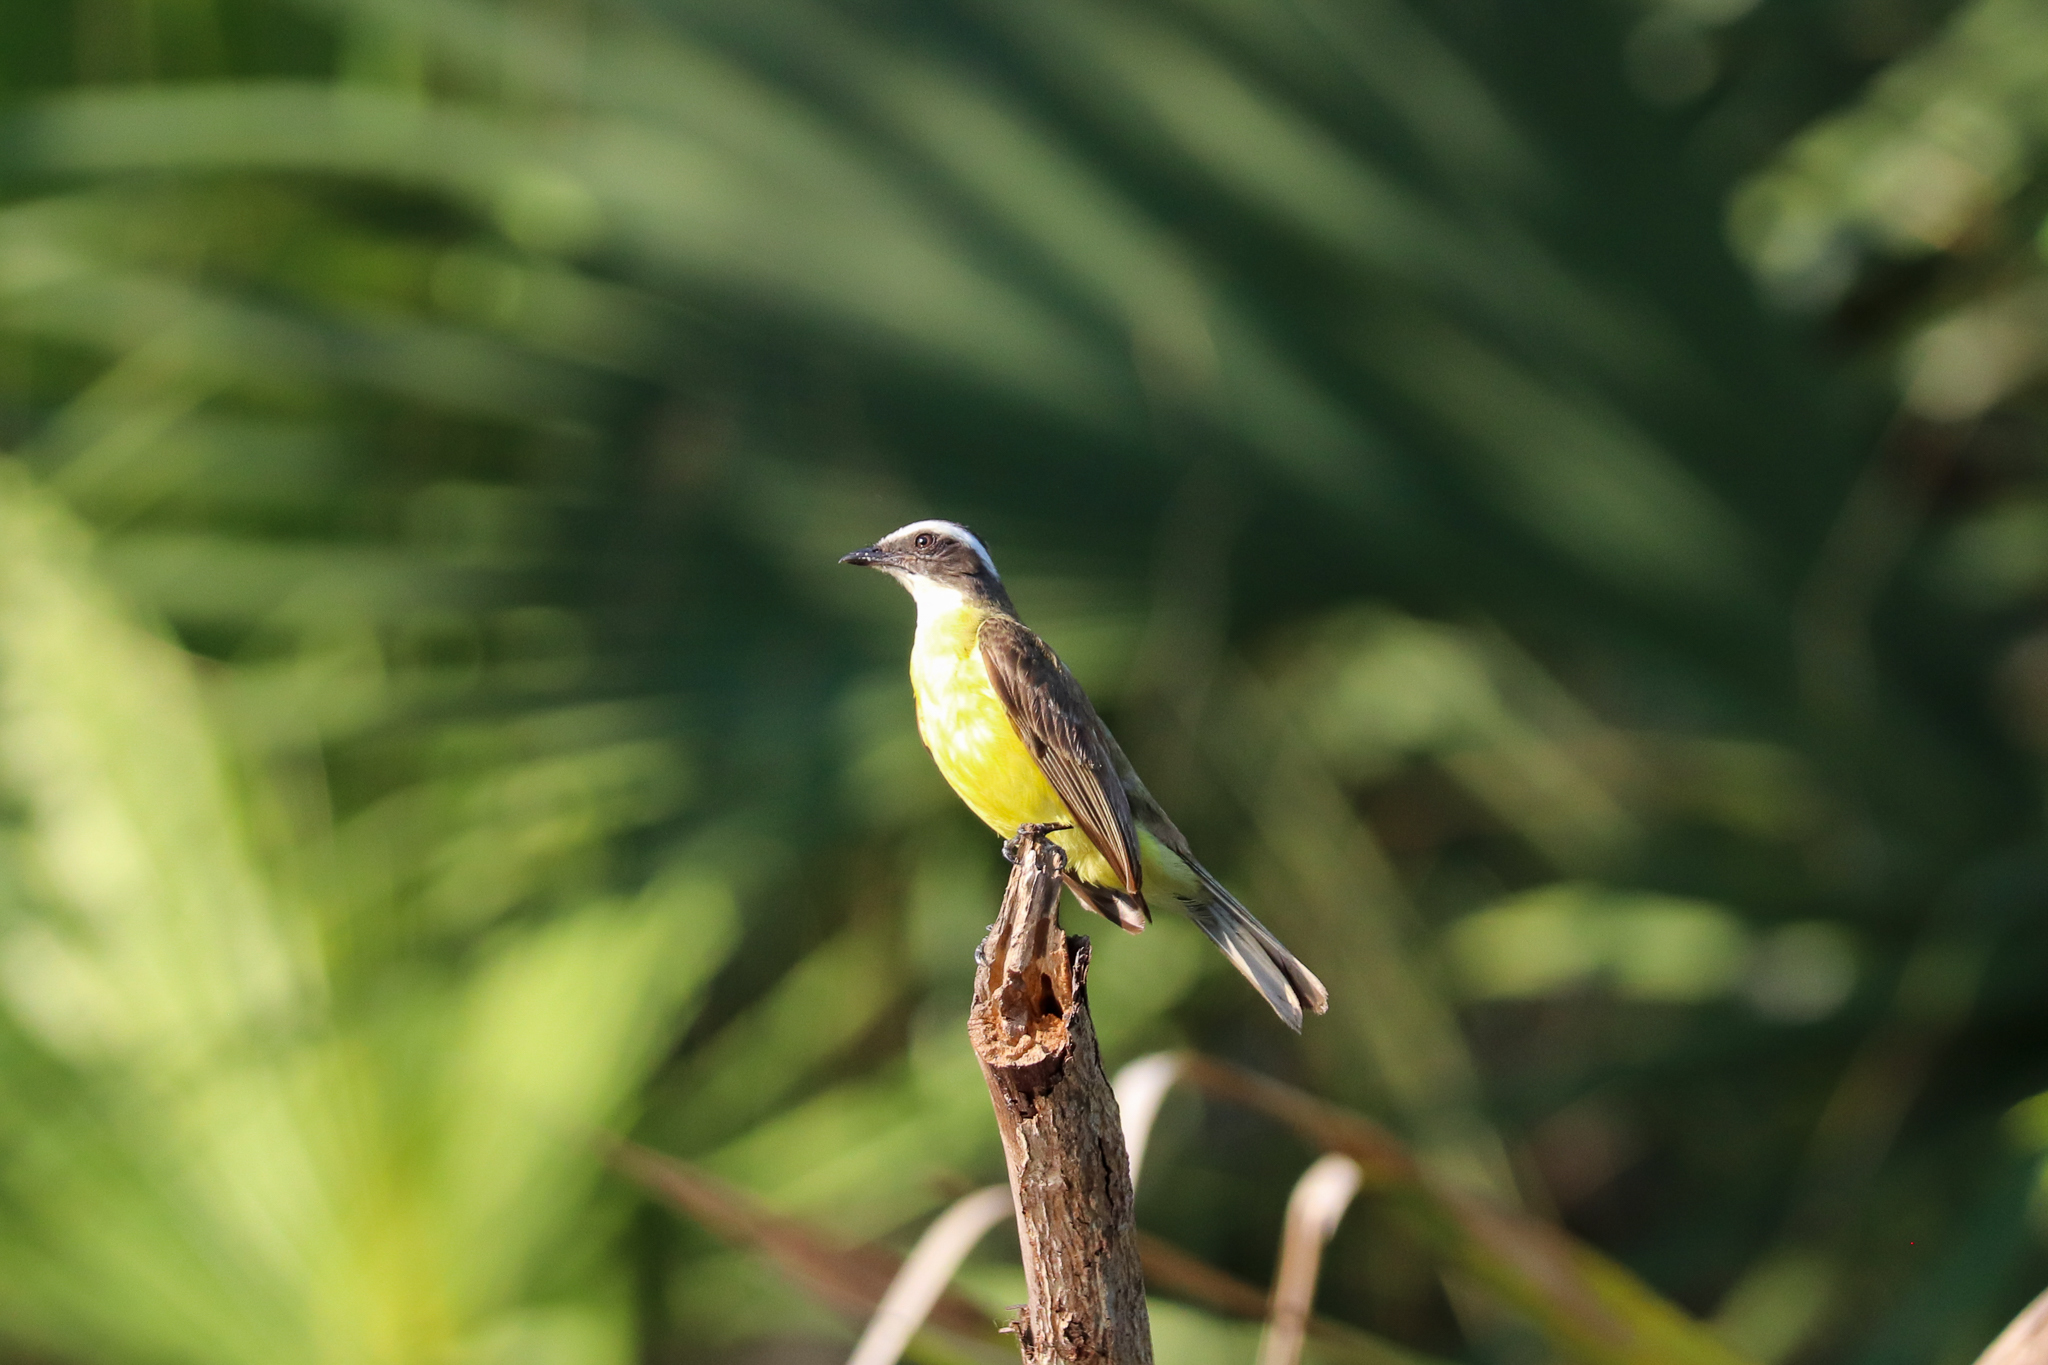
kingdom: Animalia
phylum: Chordata
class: Aves
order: Passeriformes
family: Tyrannidae
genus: Myiozetetes
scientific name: Myiozetetes similis
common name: Social flycatcher
